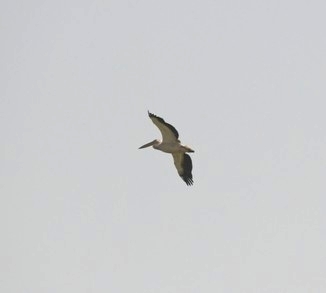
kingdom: Animalia
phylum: Chordata
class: Aves
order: Pelecaniformes
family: Pelecanidae
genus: Pelecanus
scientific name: Pelecanus onocrotalus
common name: Great white pelican
